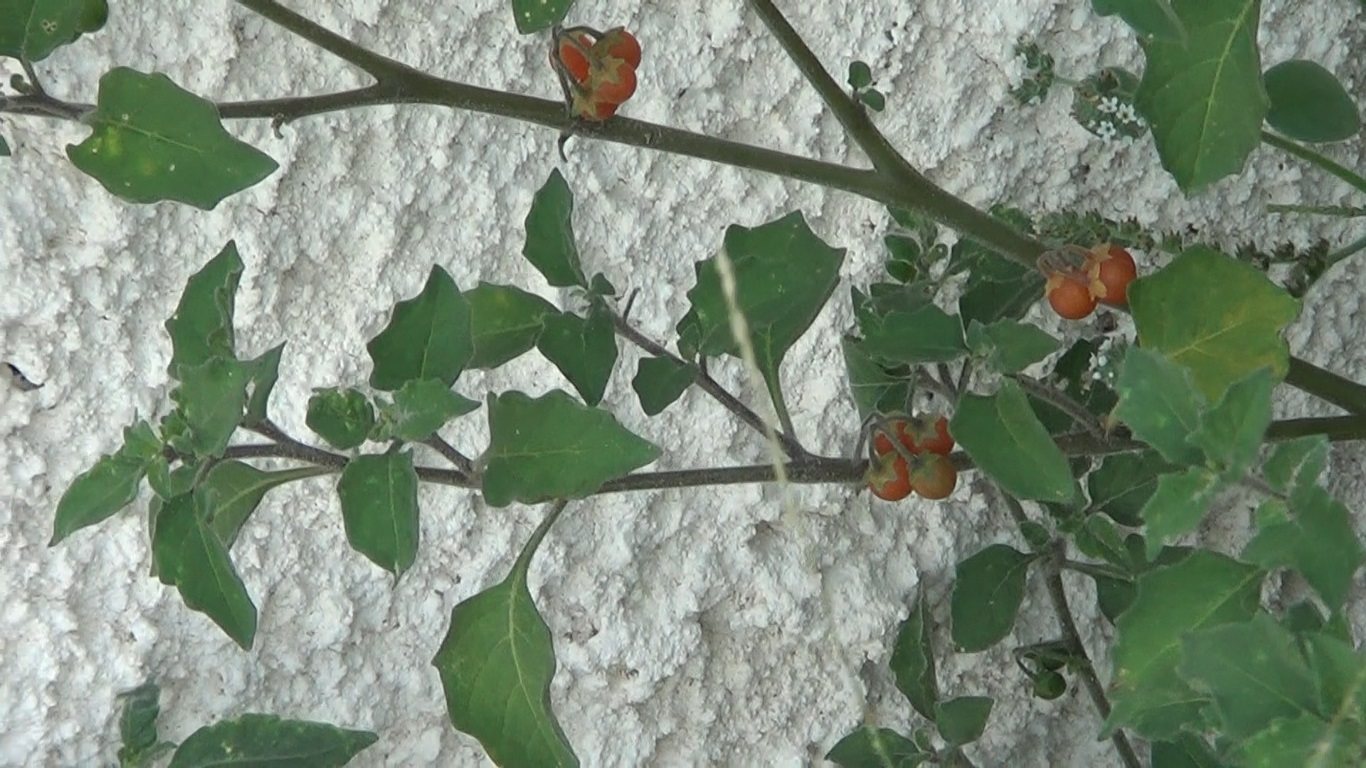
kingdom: Plantae
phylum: Tracheophyta
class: Magnoliopsida
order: Solanales
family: Solanaceae
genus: Solanum
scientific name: Solanum villosum
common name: Red nightshade
